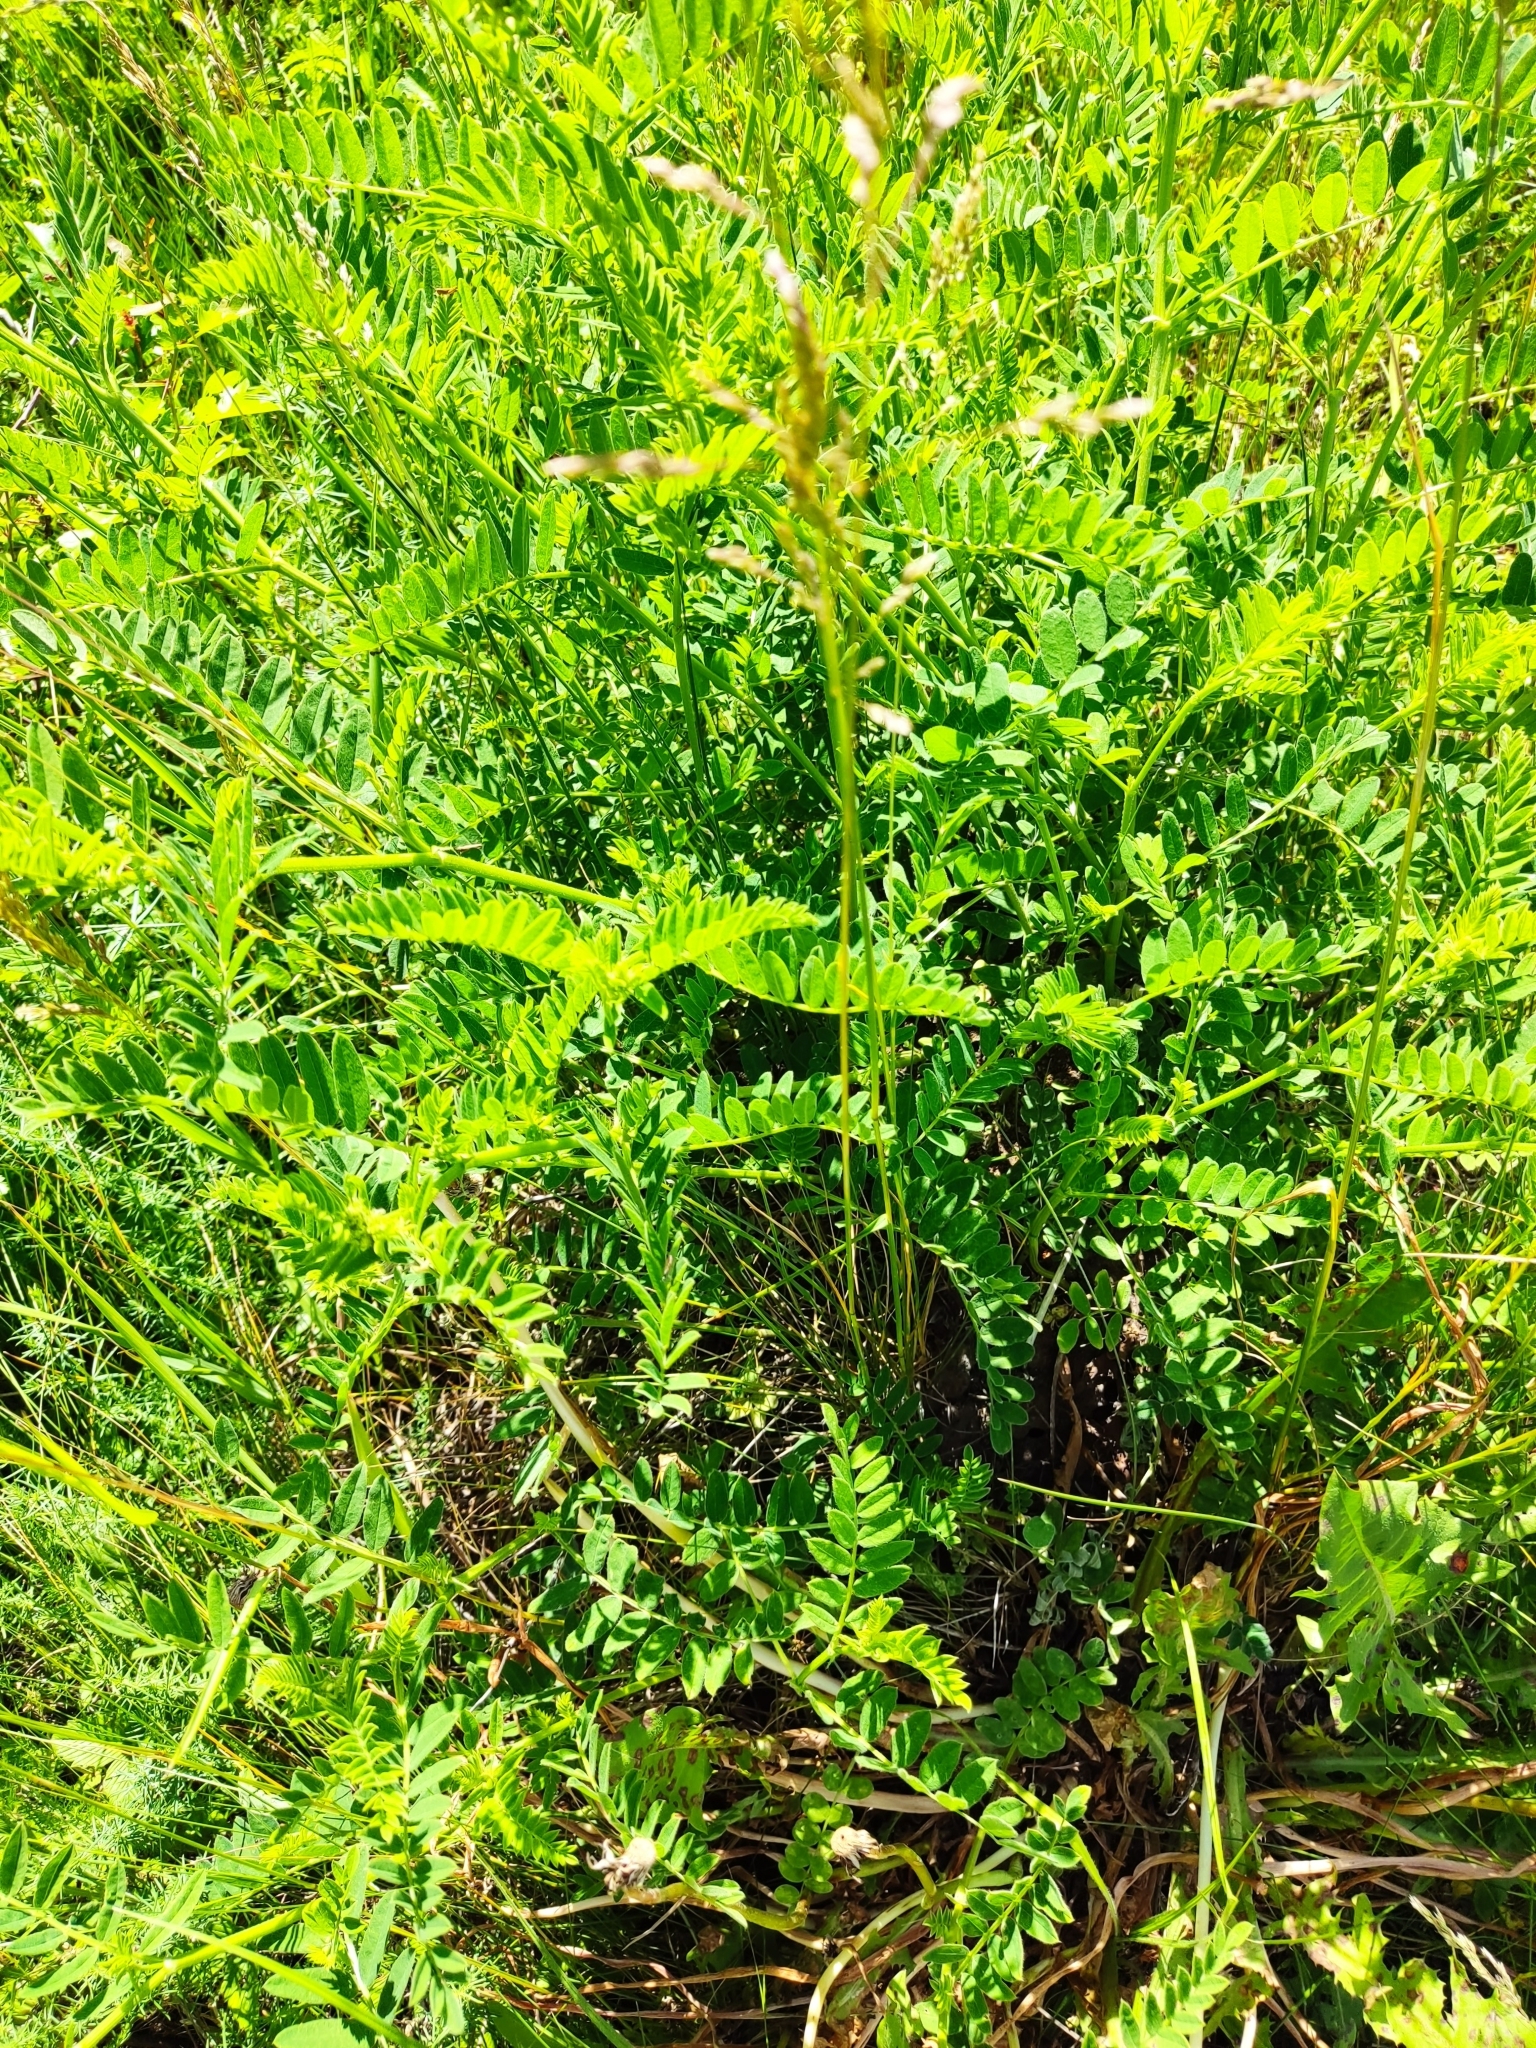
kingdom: Plantae
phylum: Tracheophyta
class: Magnoliopsida
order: Fabales
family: Fabaceae
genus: Astragalus
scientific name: Astragalus cicer
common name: Chick-pea milk-vetch
